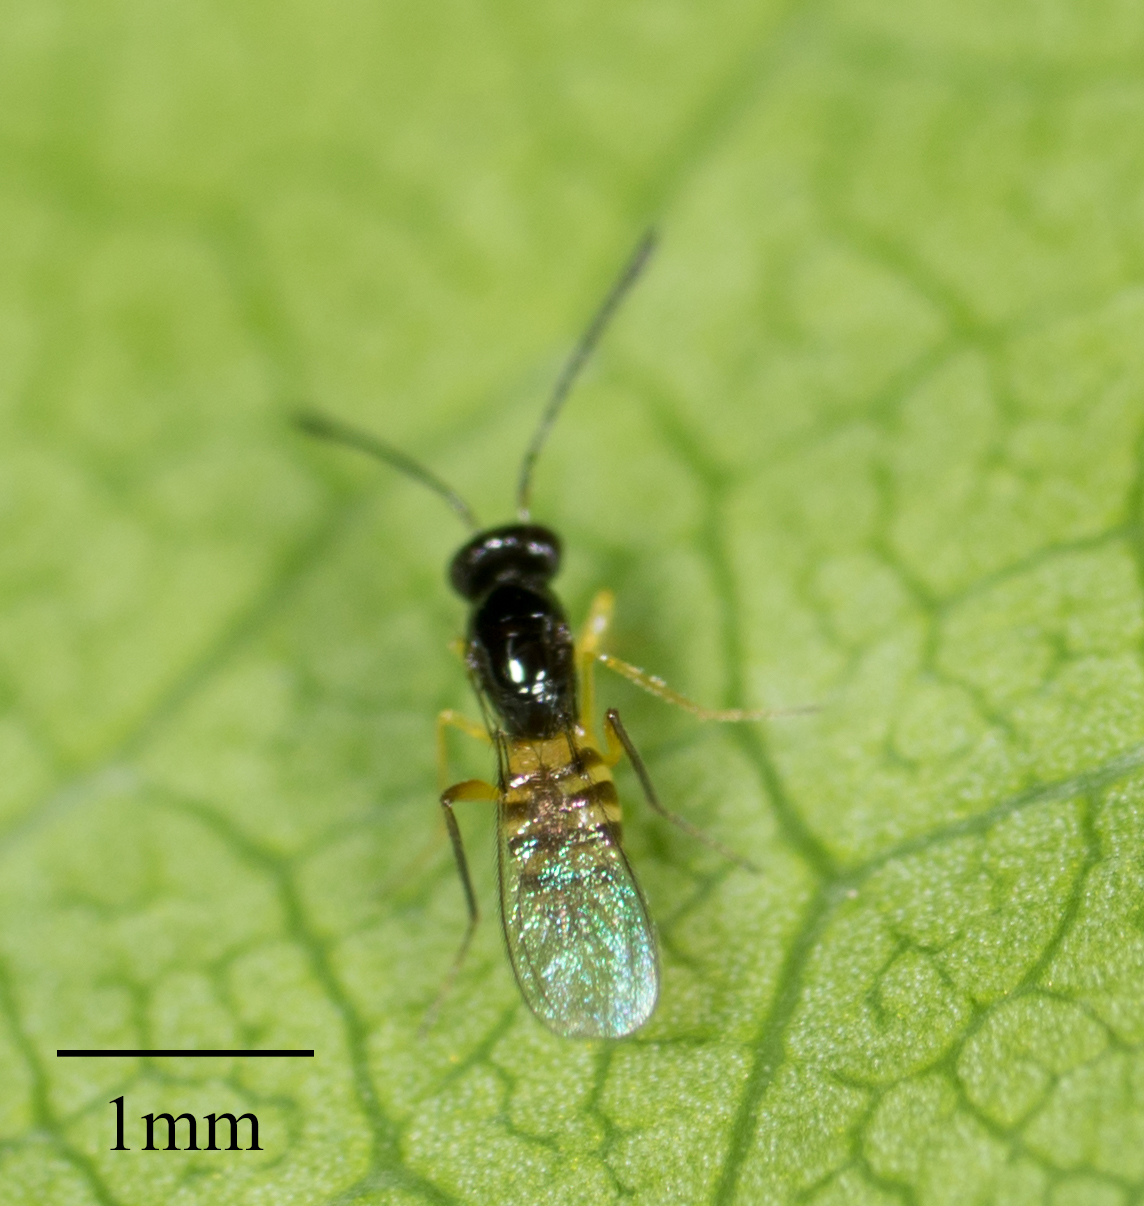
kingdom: Animalia
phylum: Arthropoda
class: Insecta
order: Hymenoptera
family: Mymaridae
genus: Cosmocomoidea
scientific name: Cosmocomoidea ashmeadi
